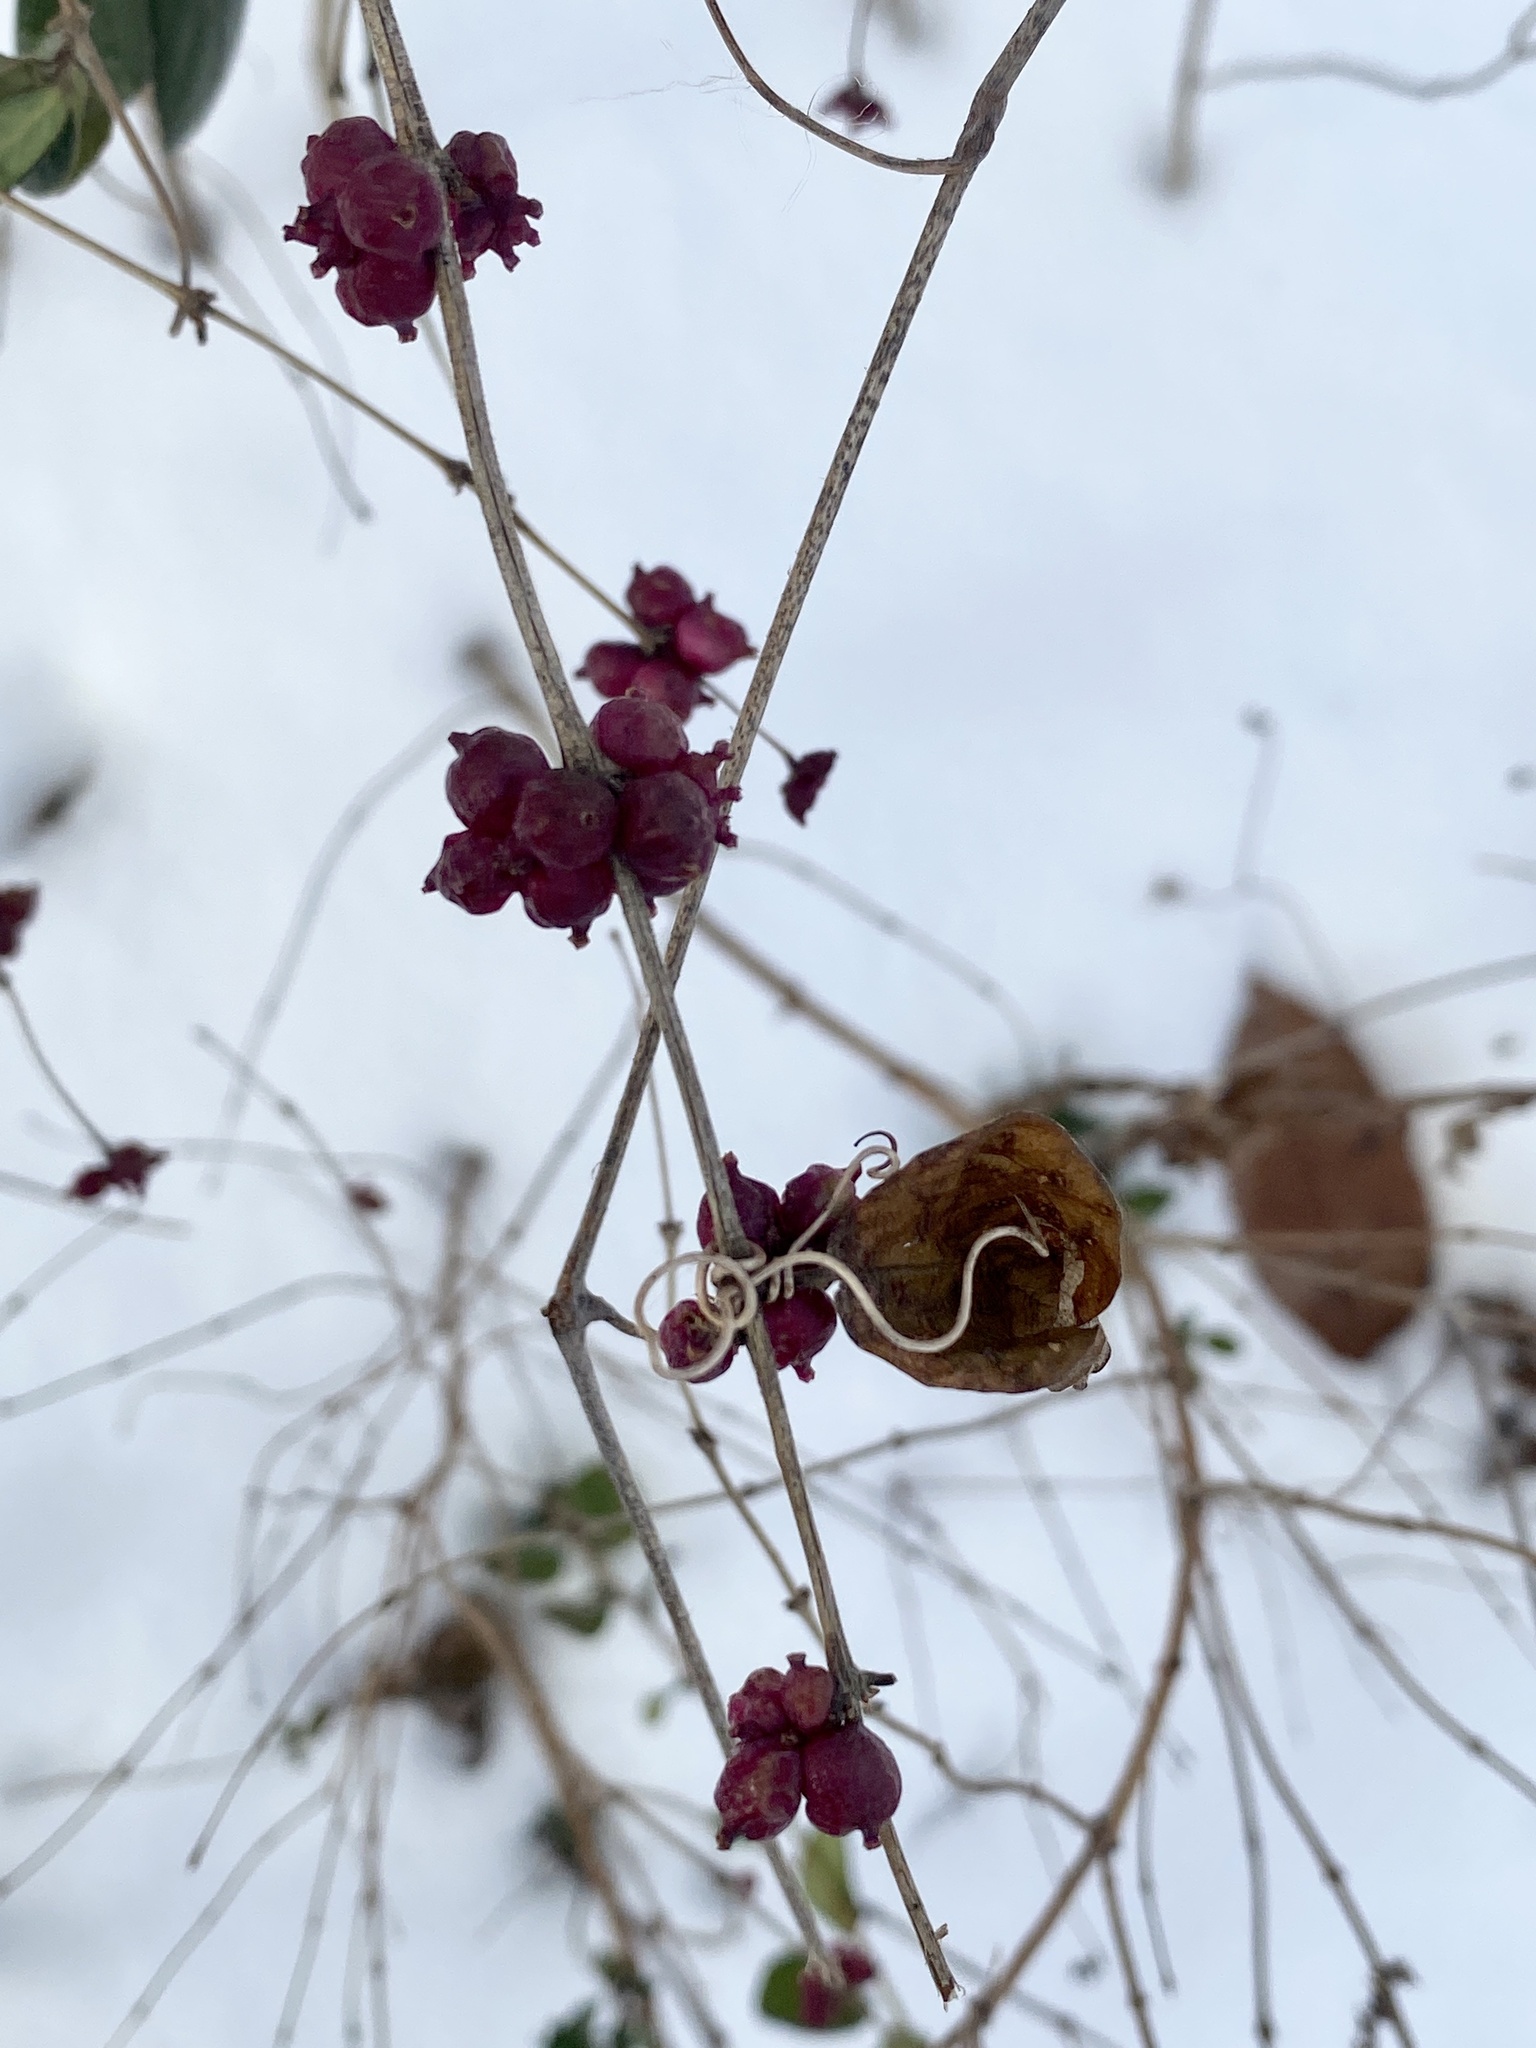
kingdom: Plantae
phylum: Tracheophyta
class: Magnoliopsida
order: Dipsacales
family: Caprifoliaceae
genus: Symphoricarpos
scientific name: Symphoricarpos orbiculatus
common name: Coralberry
